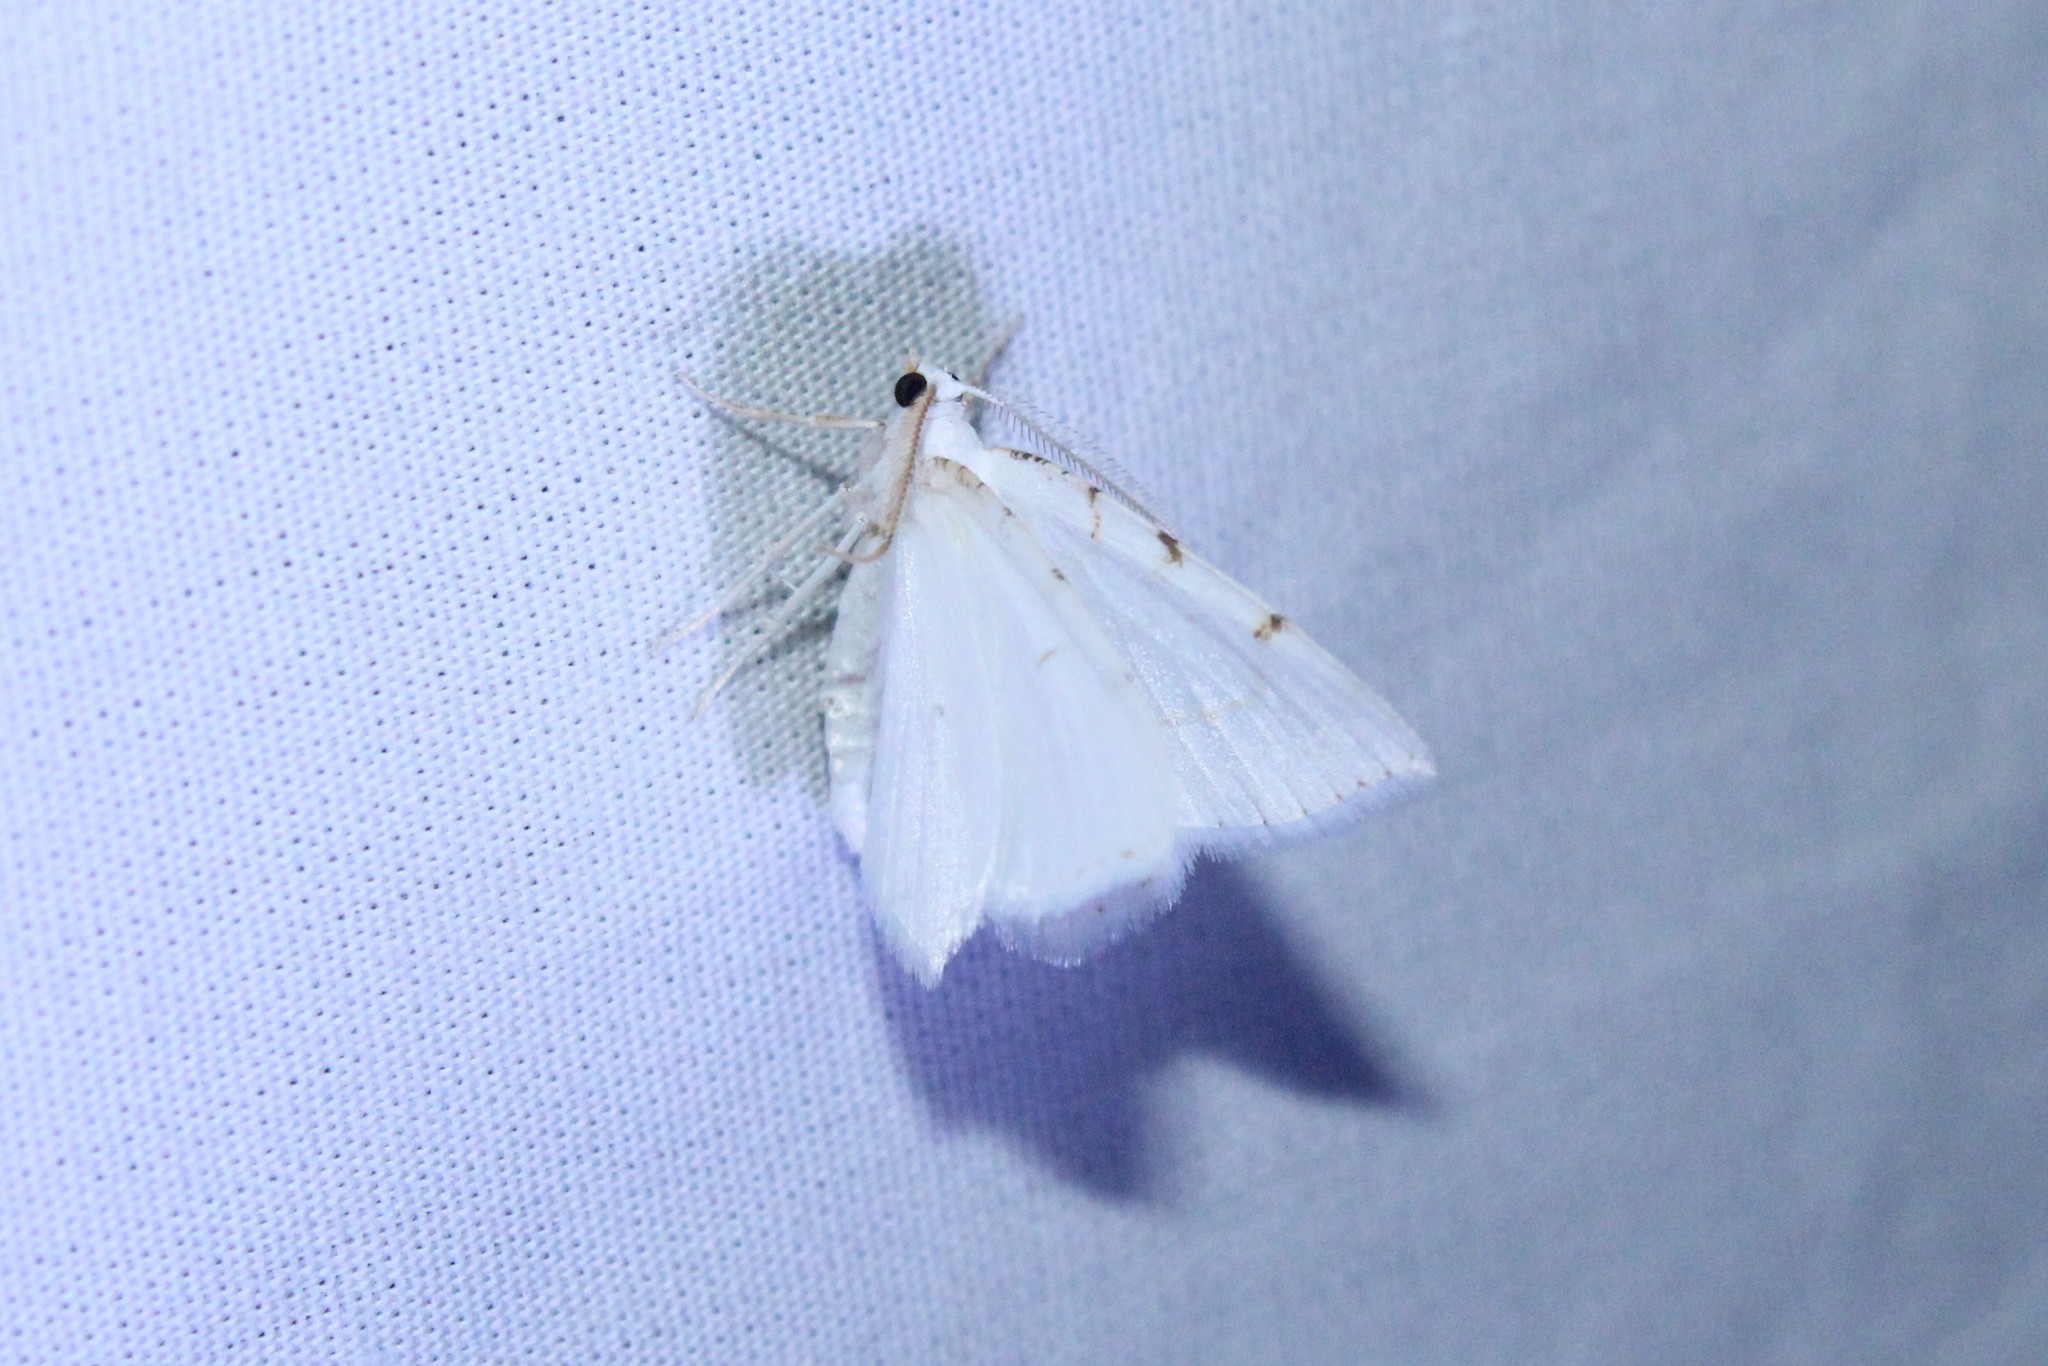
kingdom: Animalia
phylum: Arthropoda
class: Insecta
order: Lepidoptera
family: Geometridae
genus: Macaria
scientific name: Macaria pustularia
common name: Lesser maple spanworm moth
